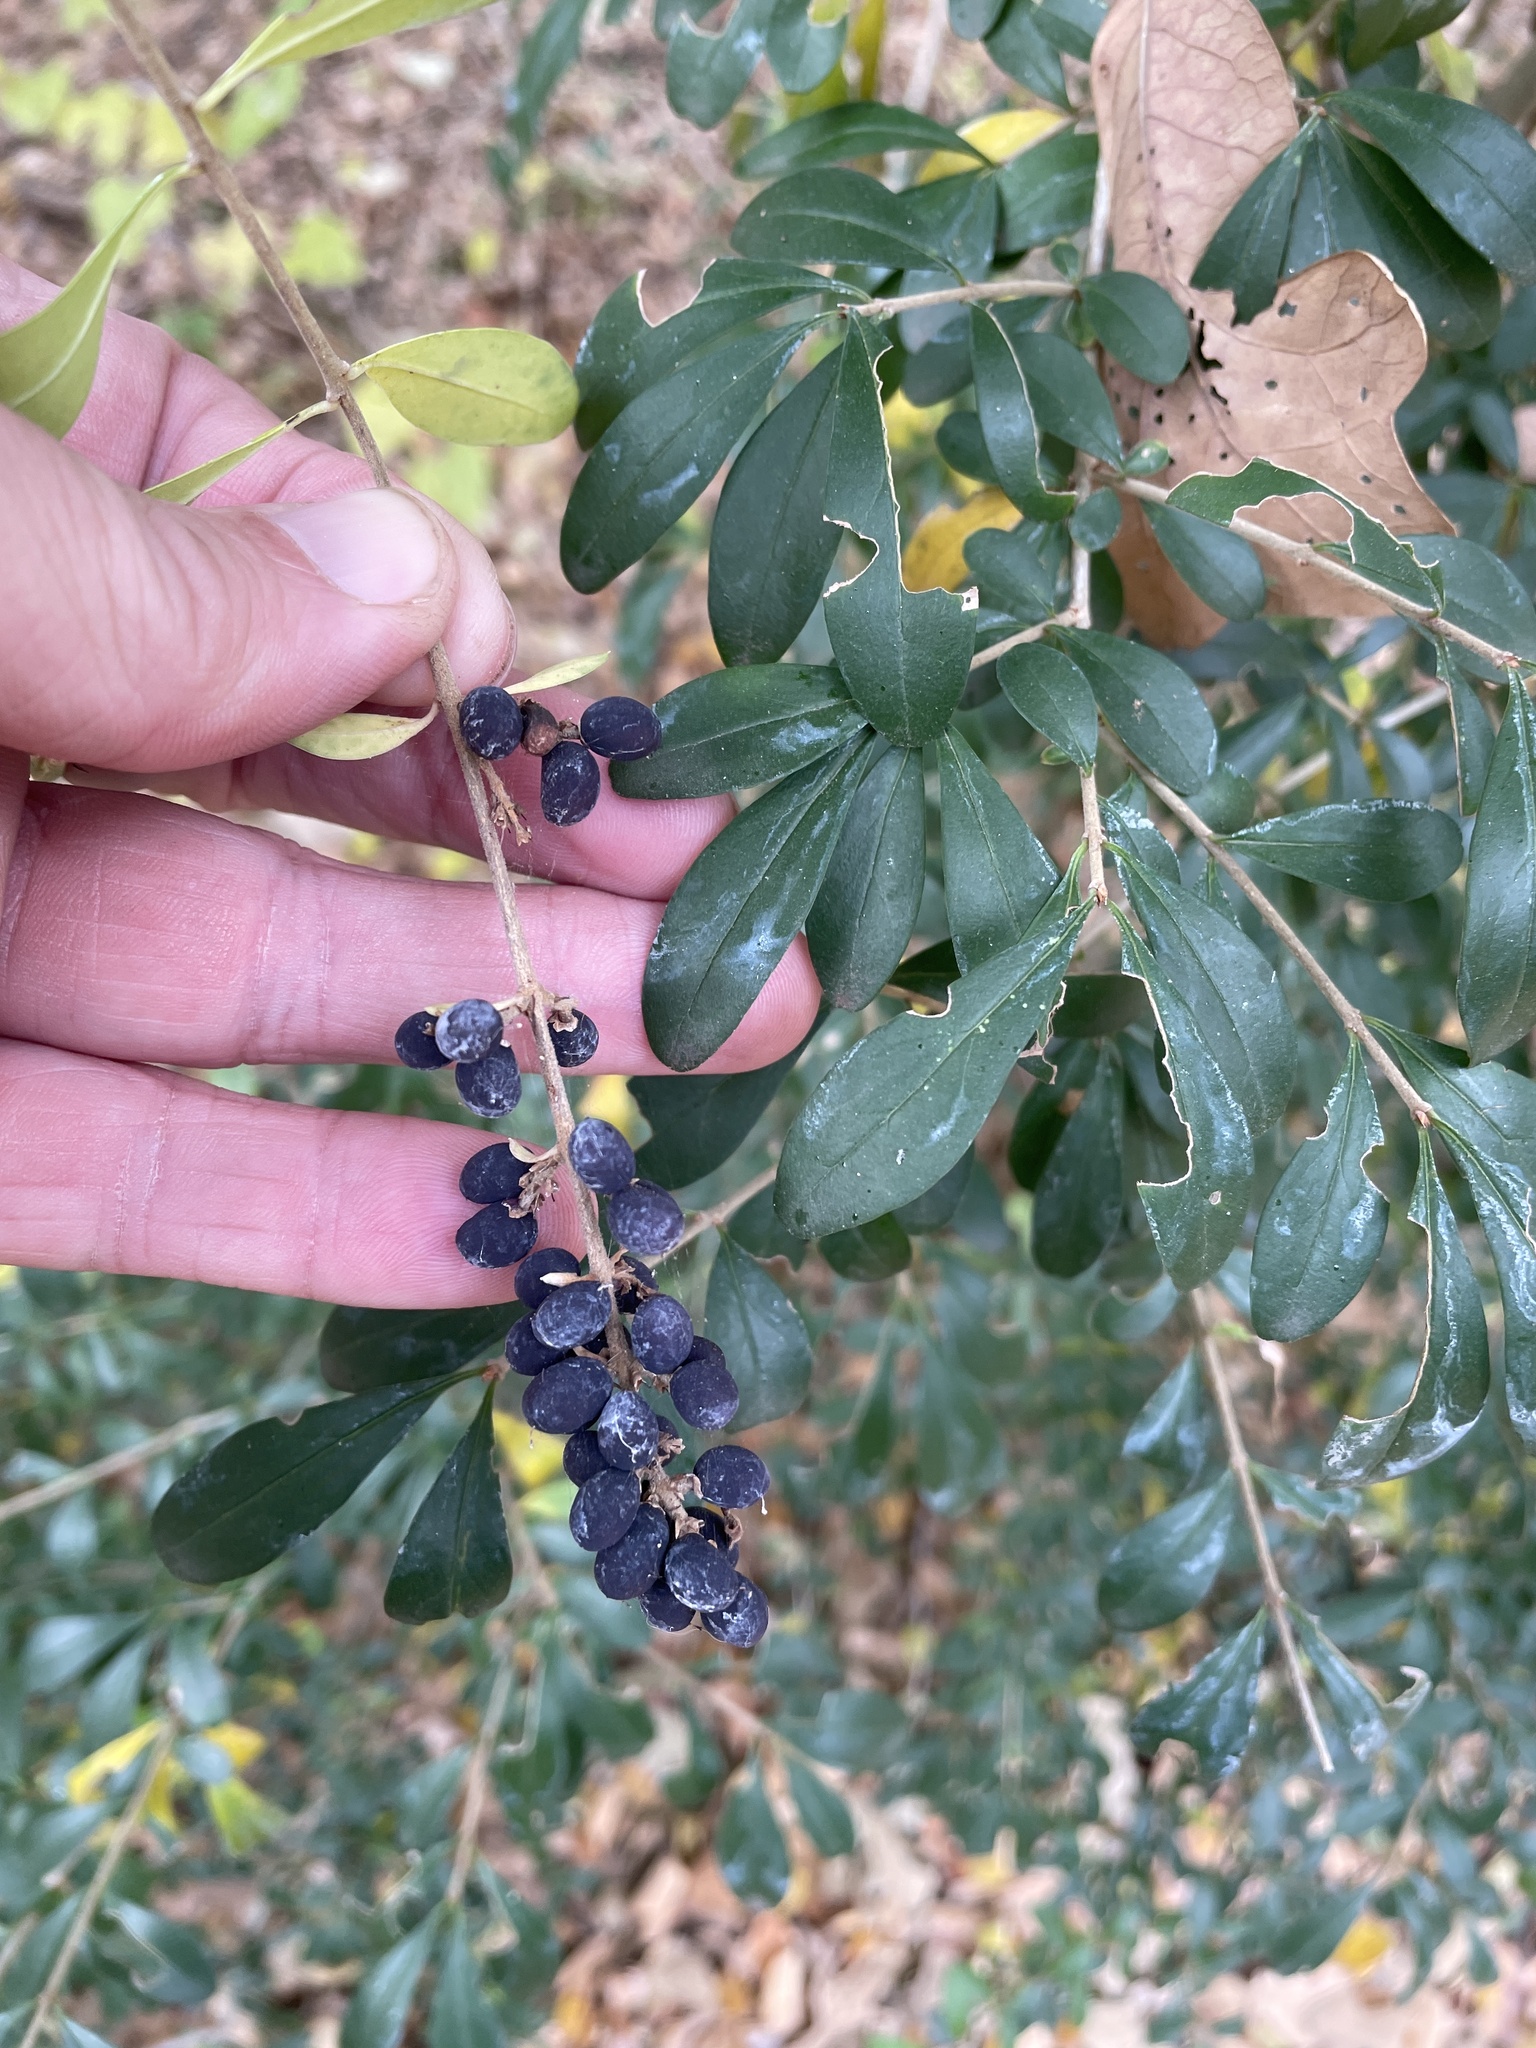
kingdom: Plantae
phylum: Tracheophyta
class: Magnoliopsida
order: Lamiales
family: Oleaceae
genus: Ligustrum
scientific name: Ligustrum quihoui
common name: Waxyleaf privet
